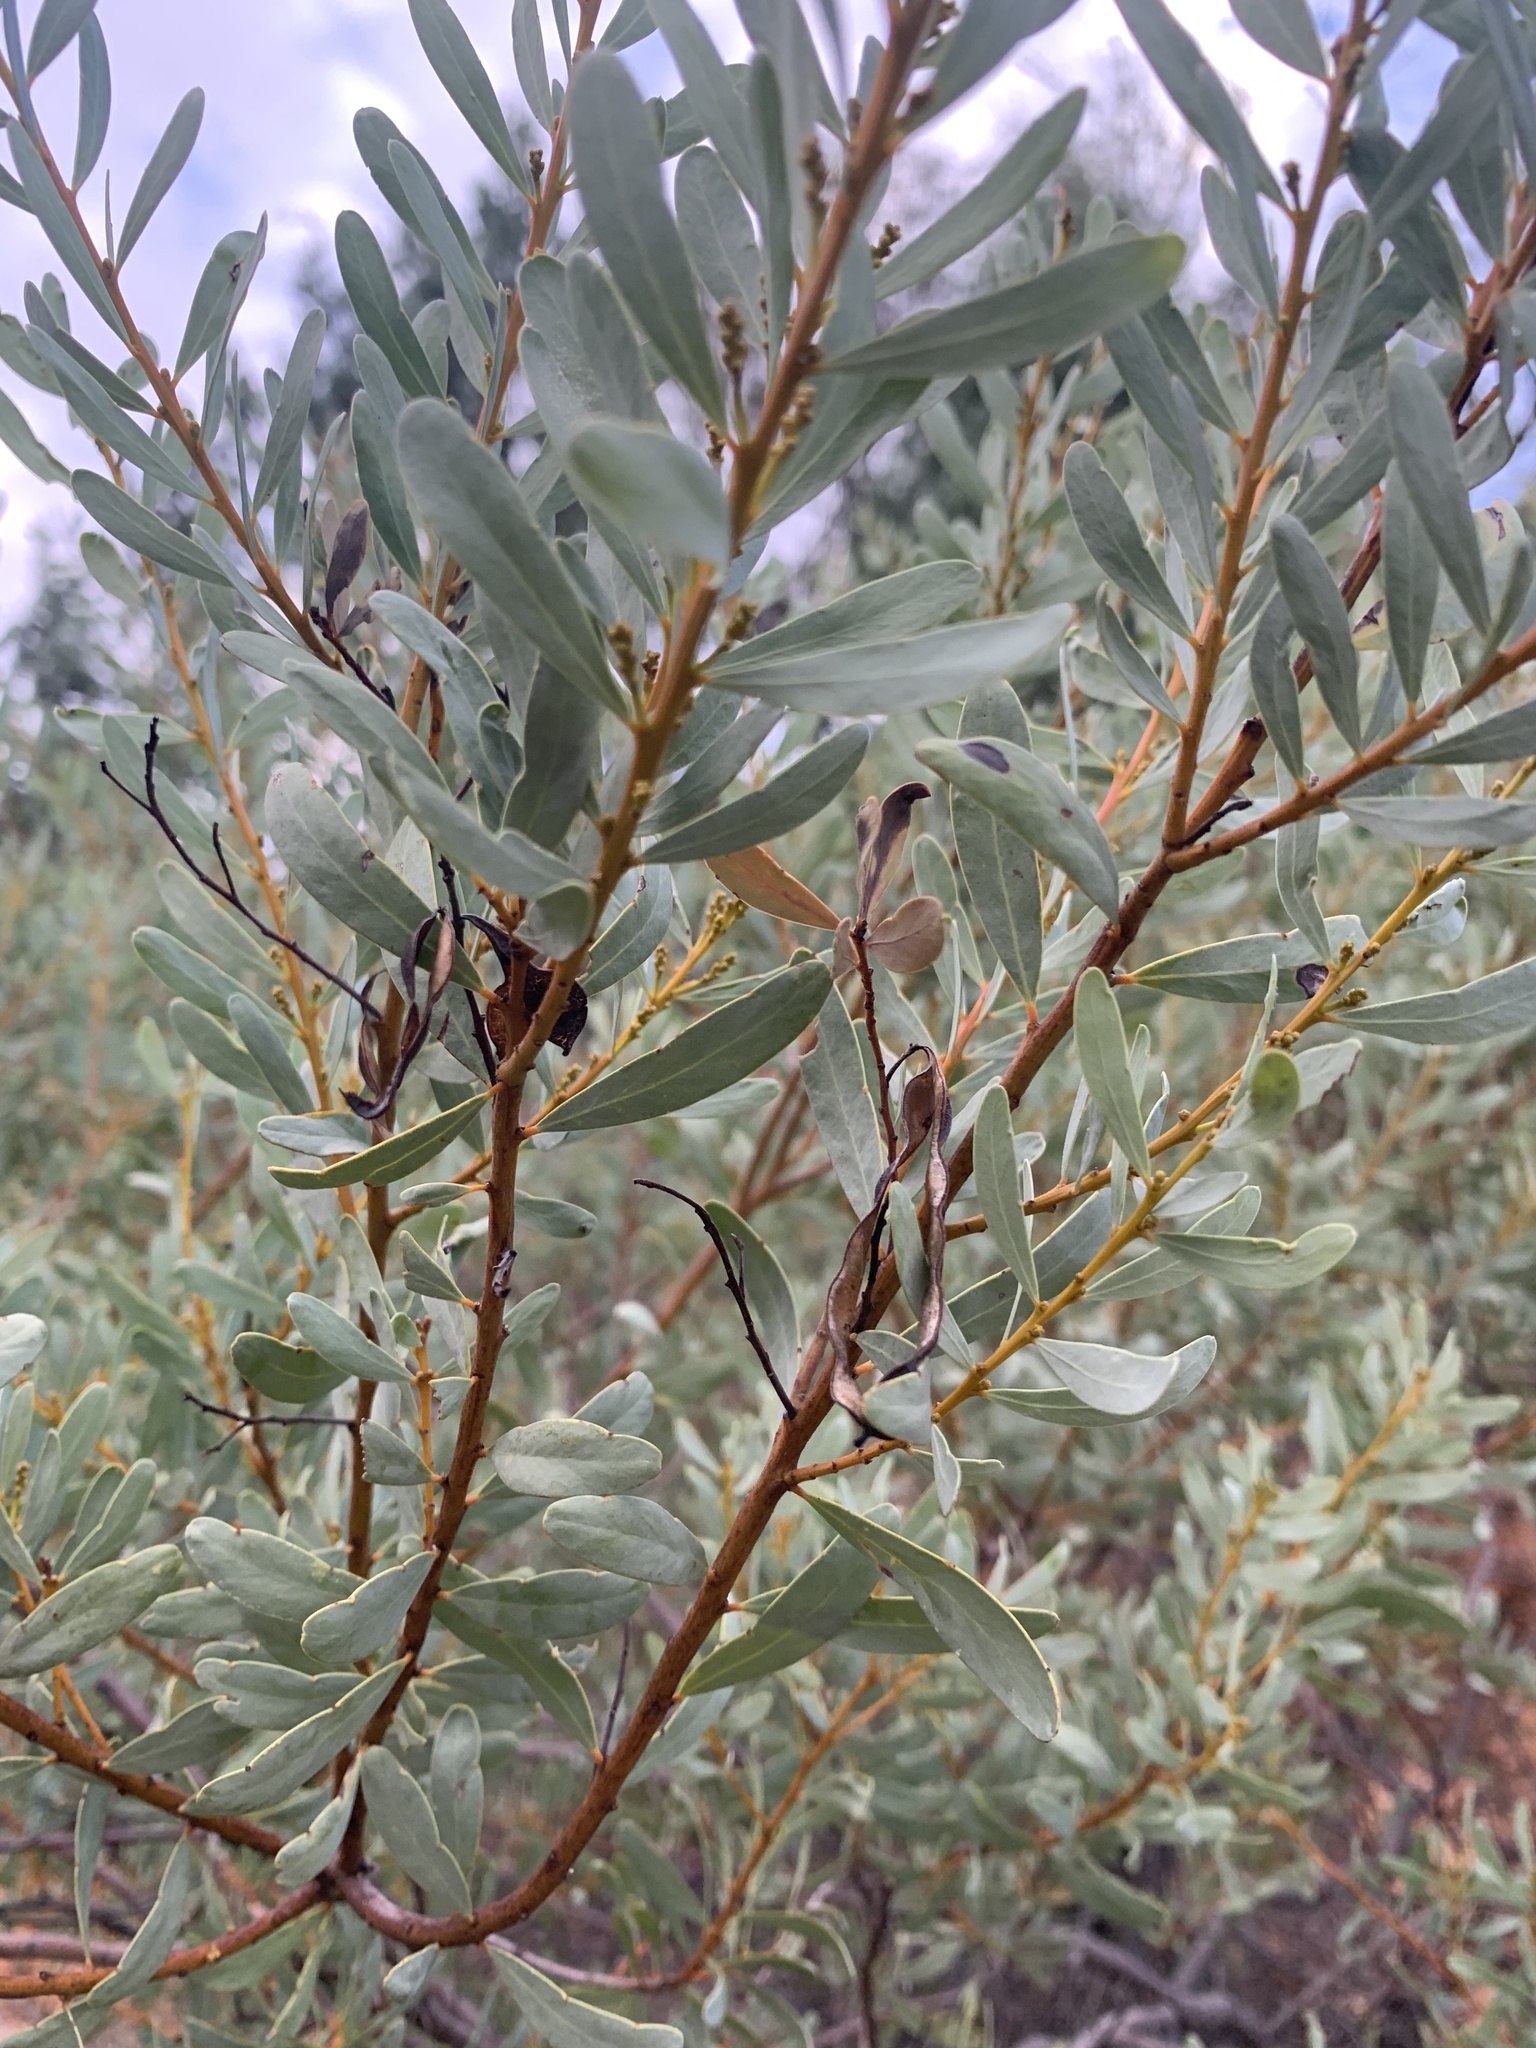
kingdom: Plantae
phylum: Tracheophyta
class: Magnoliopsida
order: Fabales
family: Fabaceae
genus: Acacia
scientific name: Acacia decora
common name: Showy wattle
